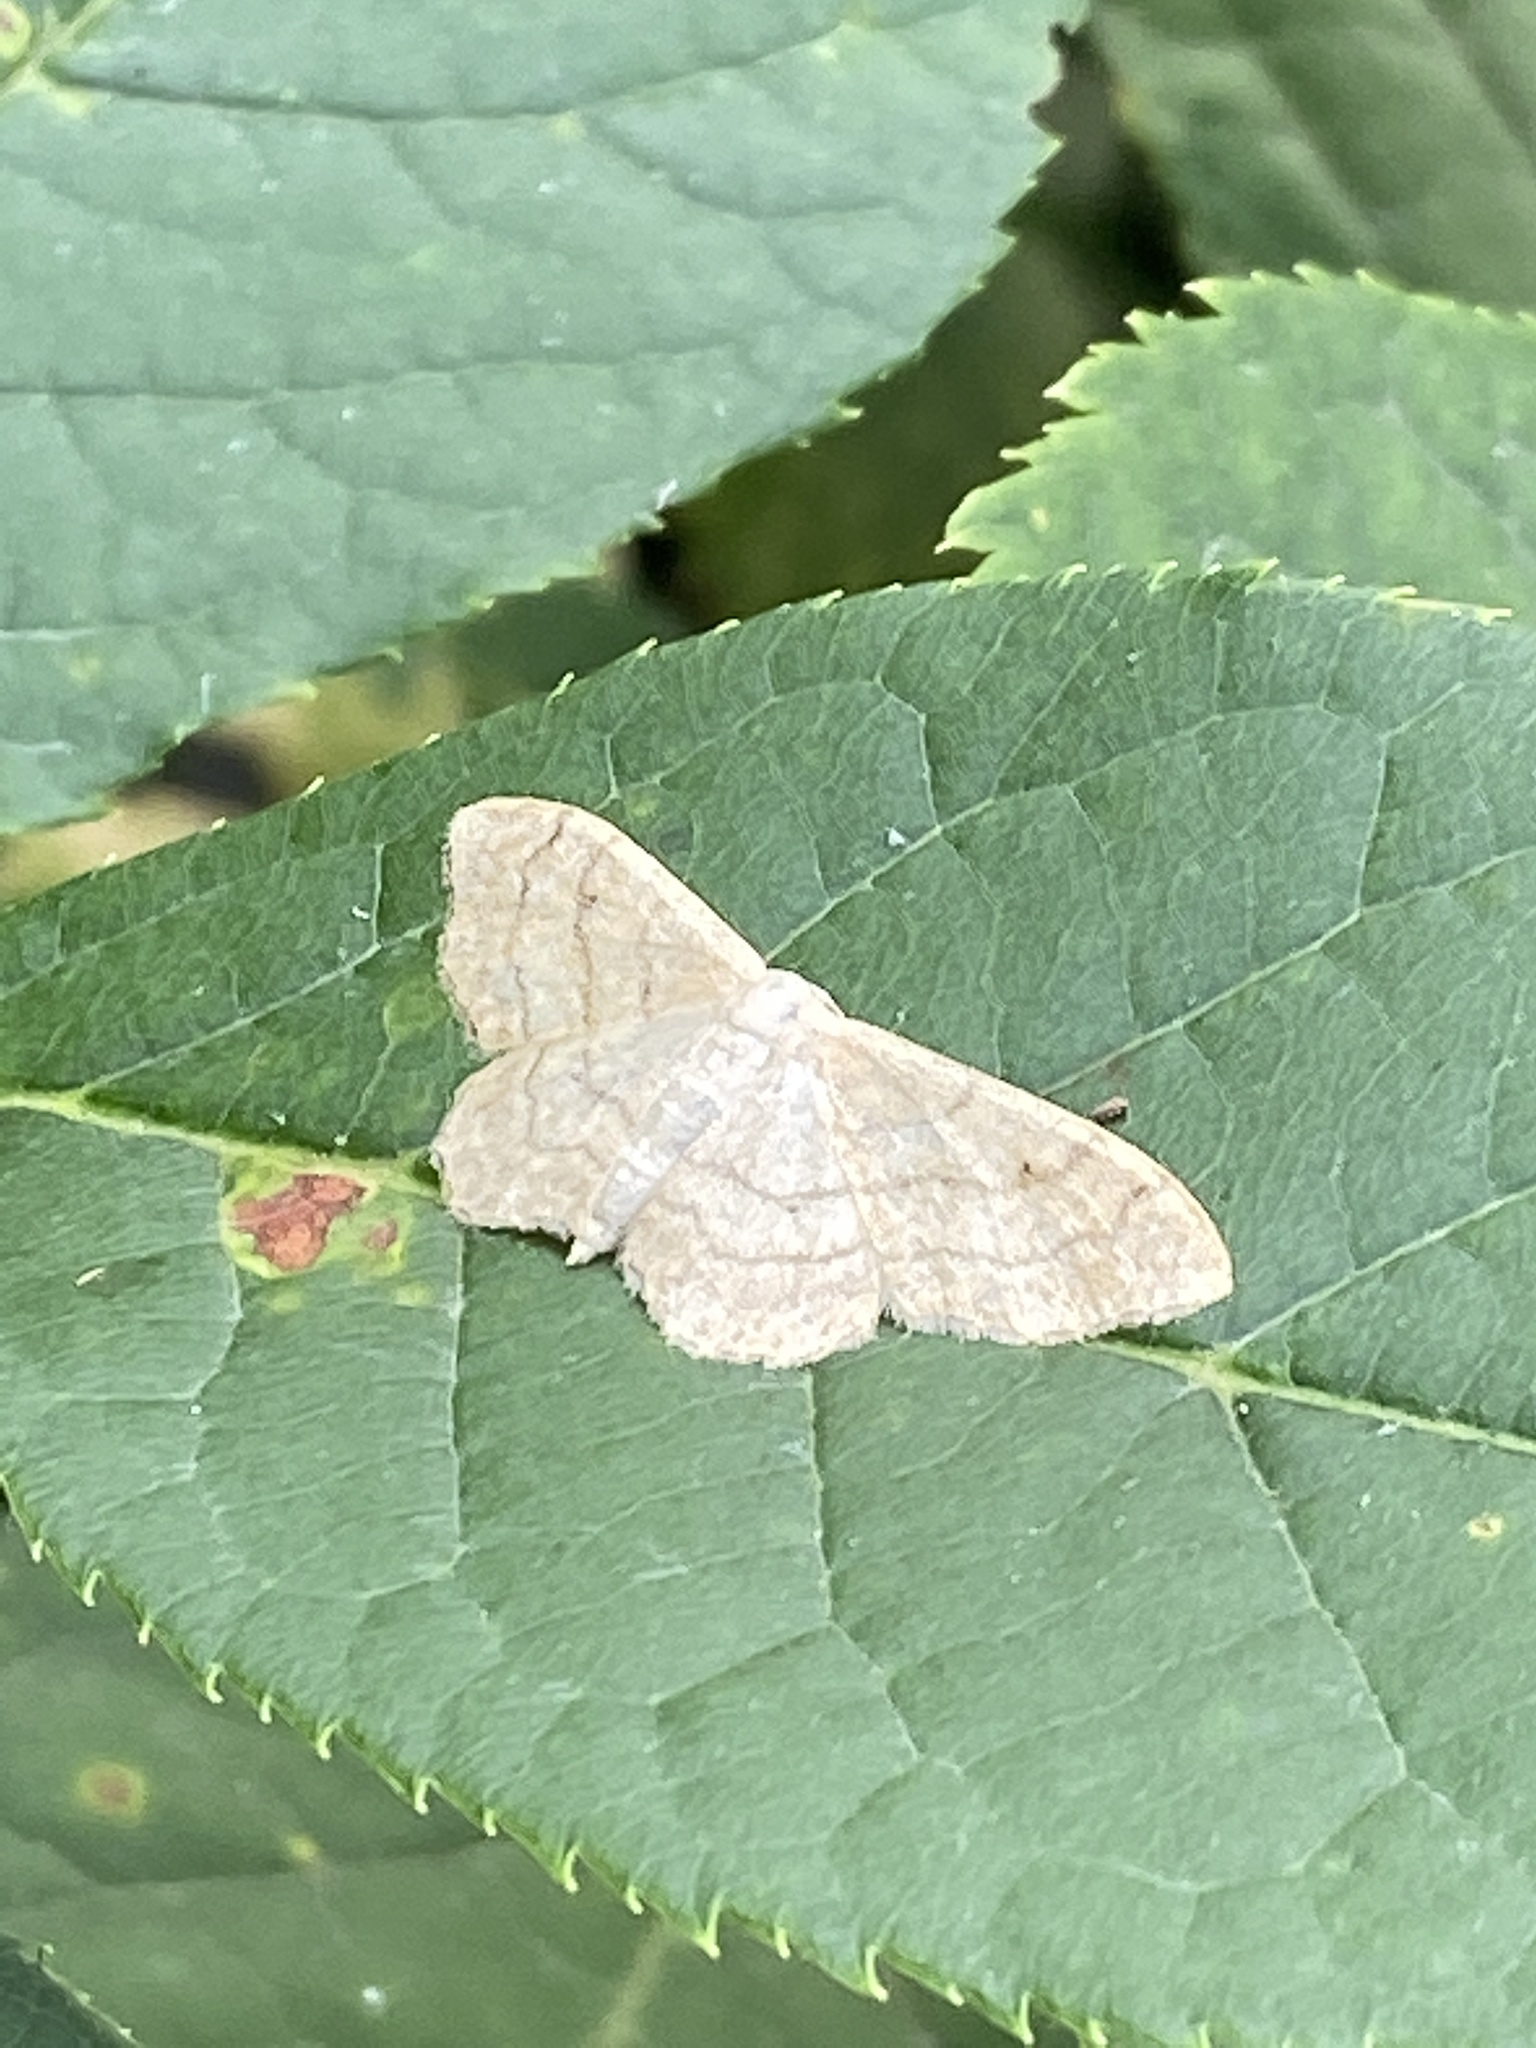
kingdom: Animalia
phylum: Arthropoda
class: Insecta
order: Lepidoptera
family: Geometridae
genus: Idaea
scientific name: Idaea aversata
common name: Riband wave
